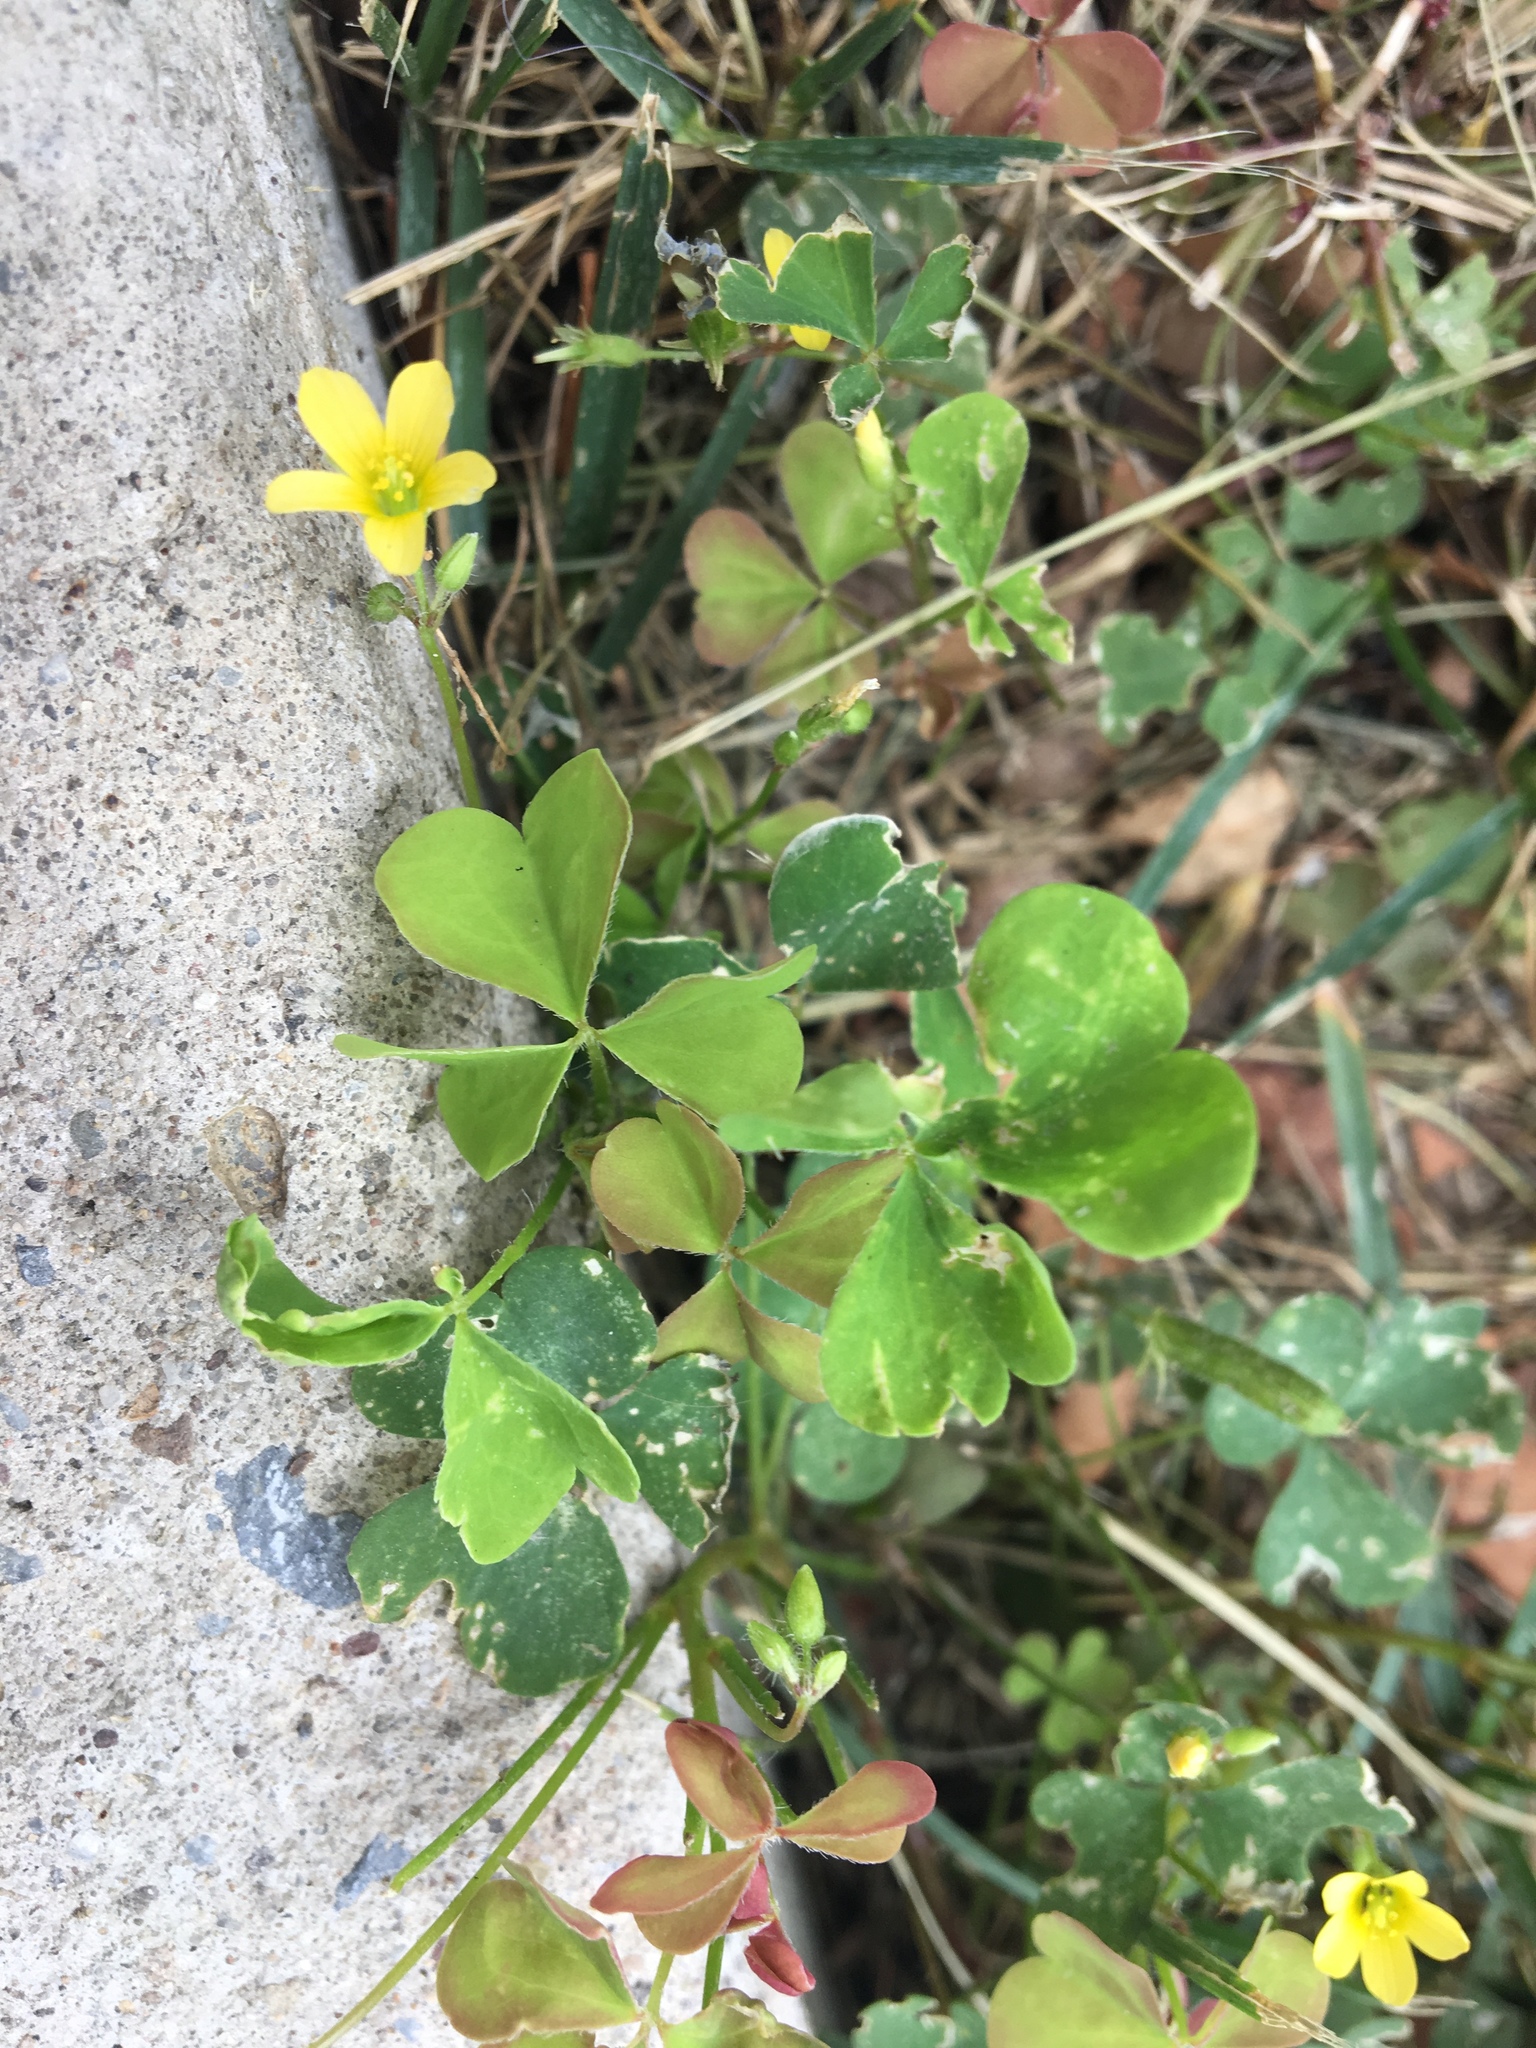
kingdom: Plantae
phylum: Tracheophyta
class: Magnoliopsida
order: Oxalidales
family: Oxalidaceae
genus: Oxalis
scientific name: Oxalis stricta
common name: Upright yellow-sorrel
